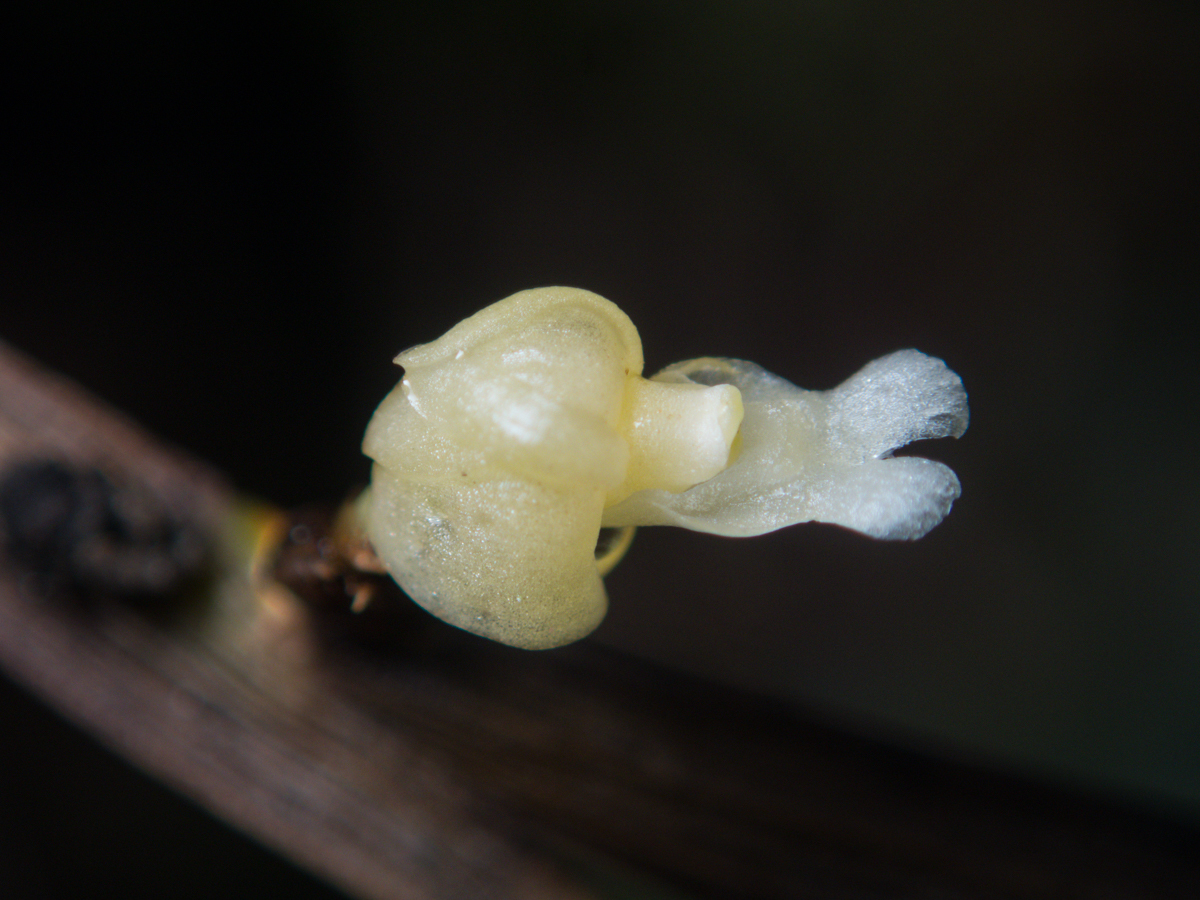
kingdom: Plantae
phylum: Tracheophyta
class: Liliopsida
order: Asparagales
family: Orchidaceae
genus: Dendrobium
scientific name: Dendrobium aloifolium
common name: Aloe-like dendrobium
